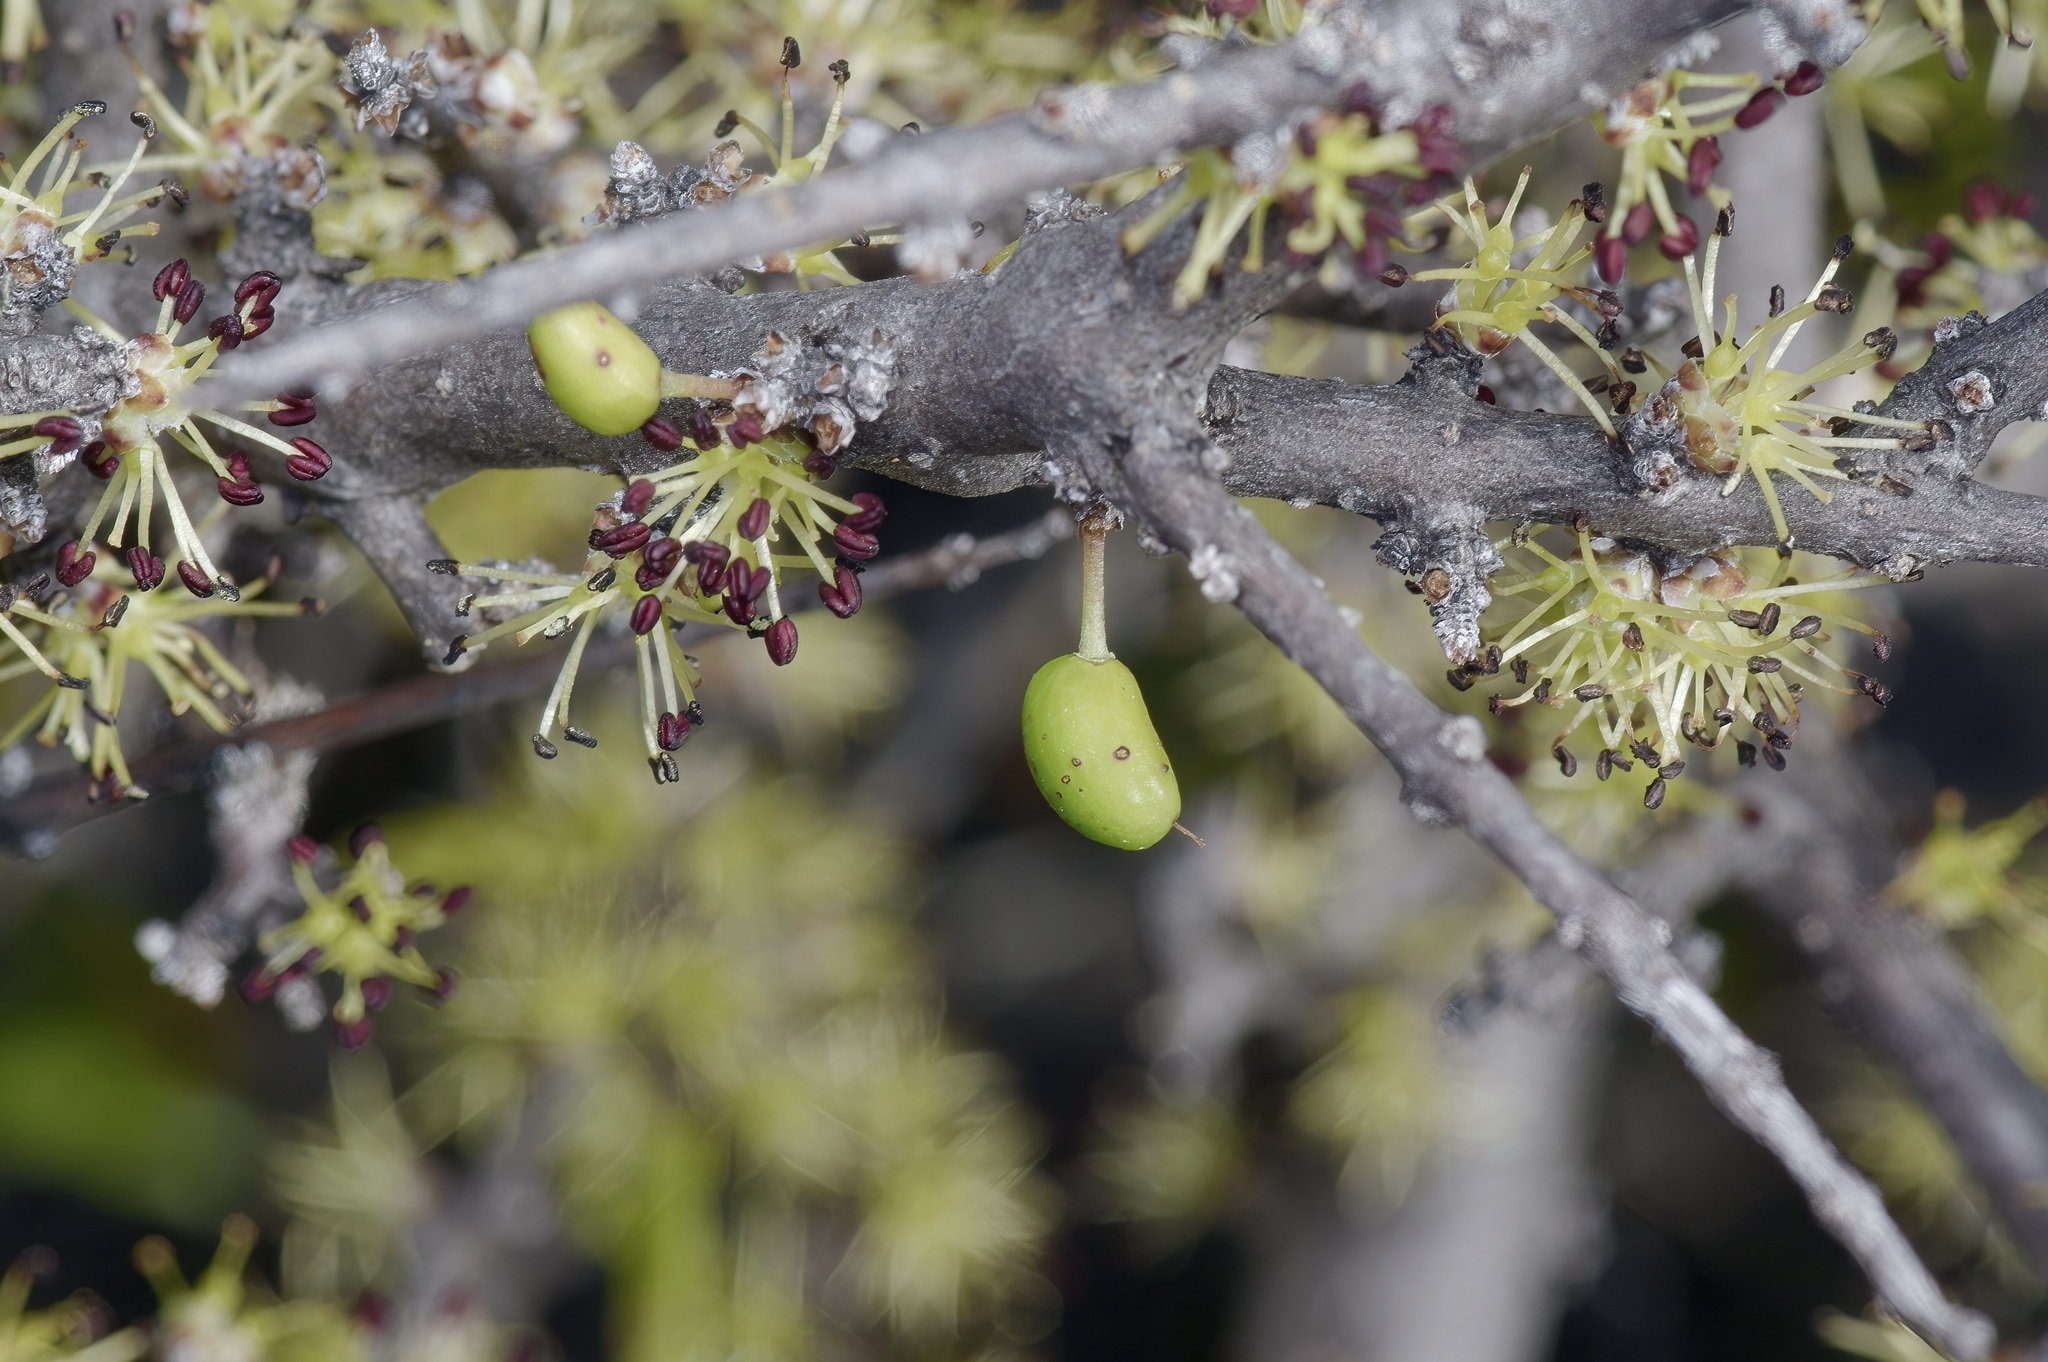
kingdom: Plantae
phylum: Tracheophyta
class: Magnoliopsida
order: Lamiales
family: Oleaceae
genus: Forestiera
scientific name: Forestiera angustifolia
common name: Elbowbush
